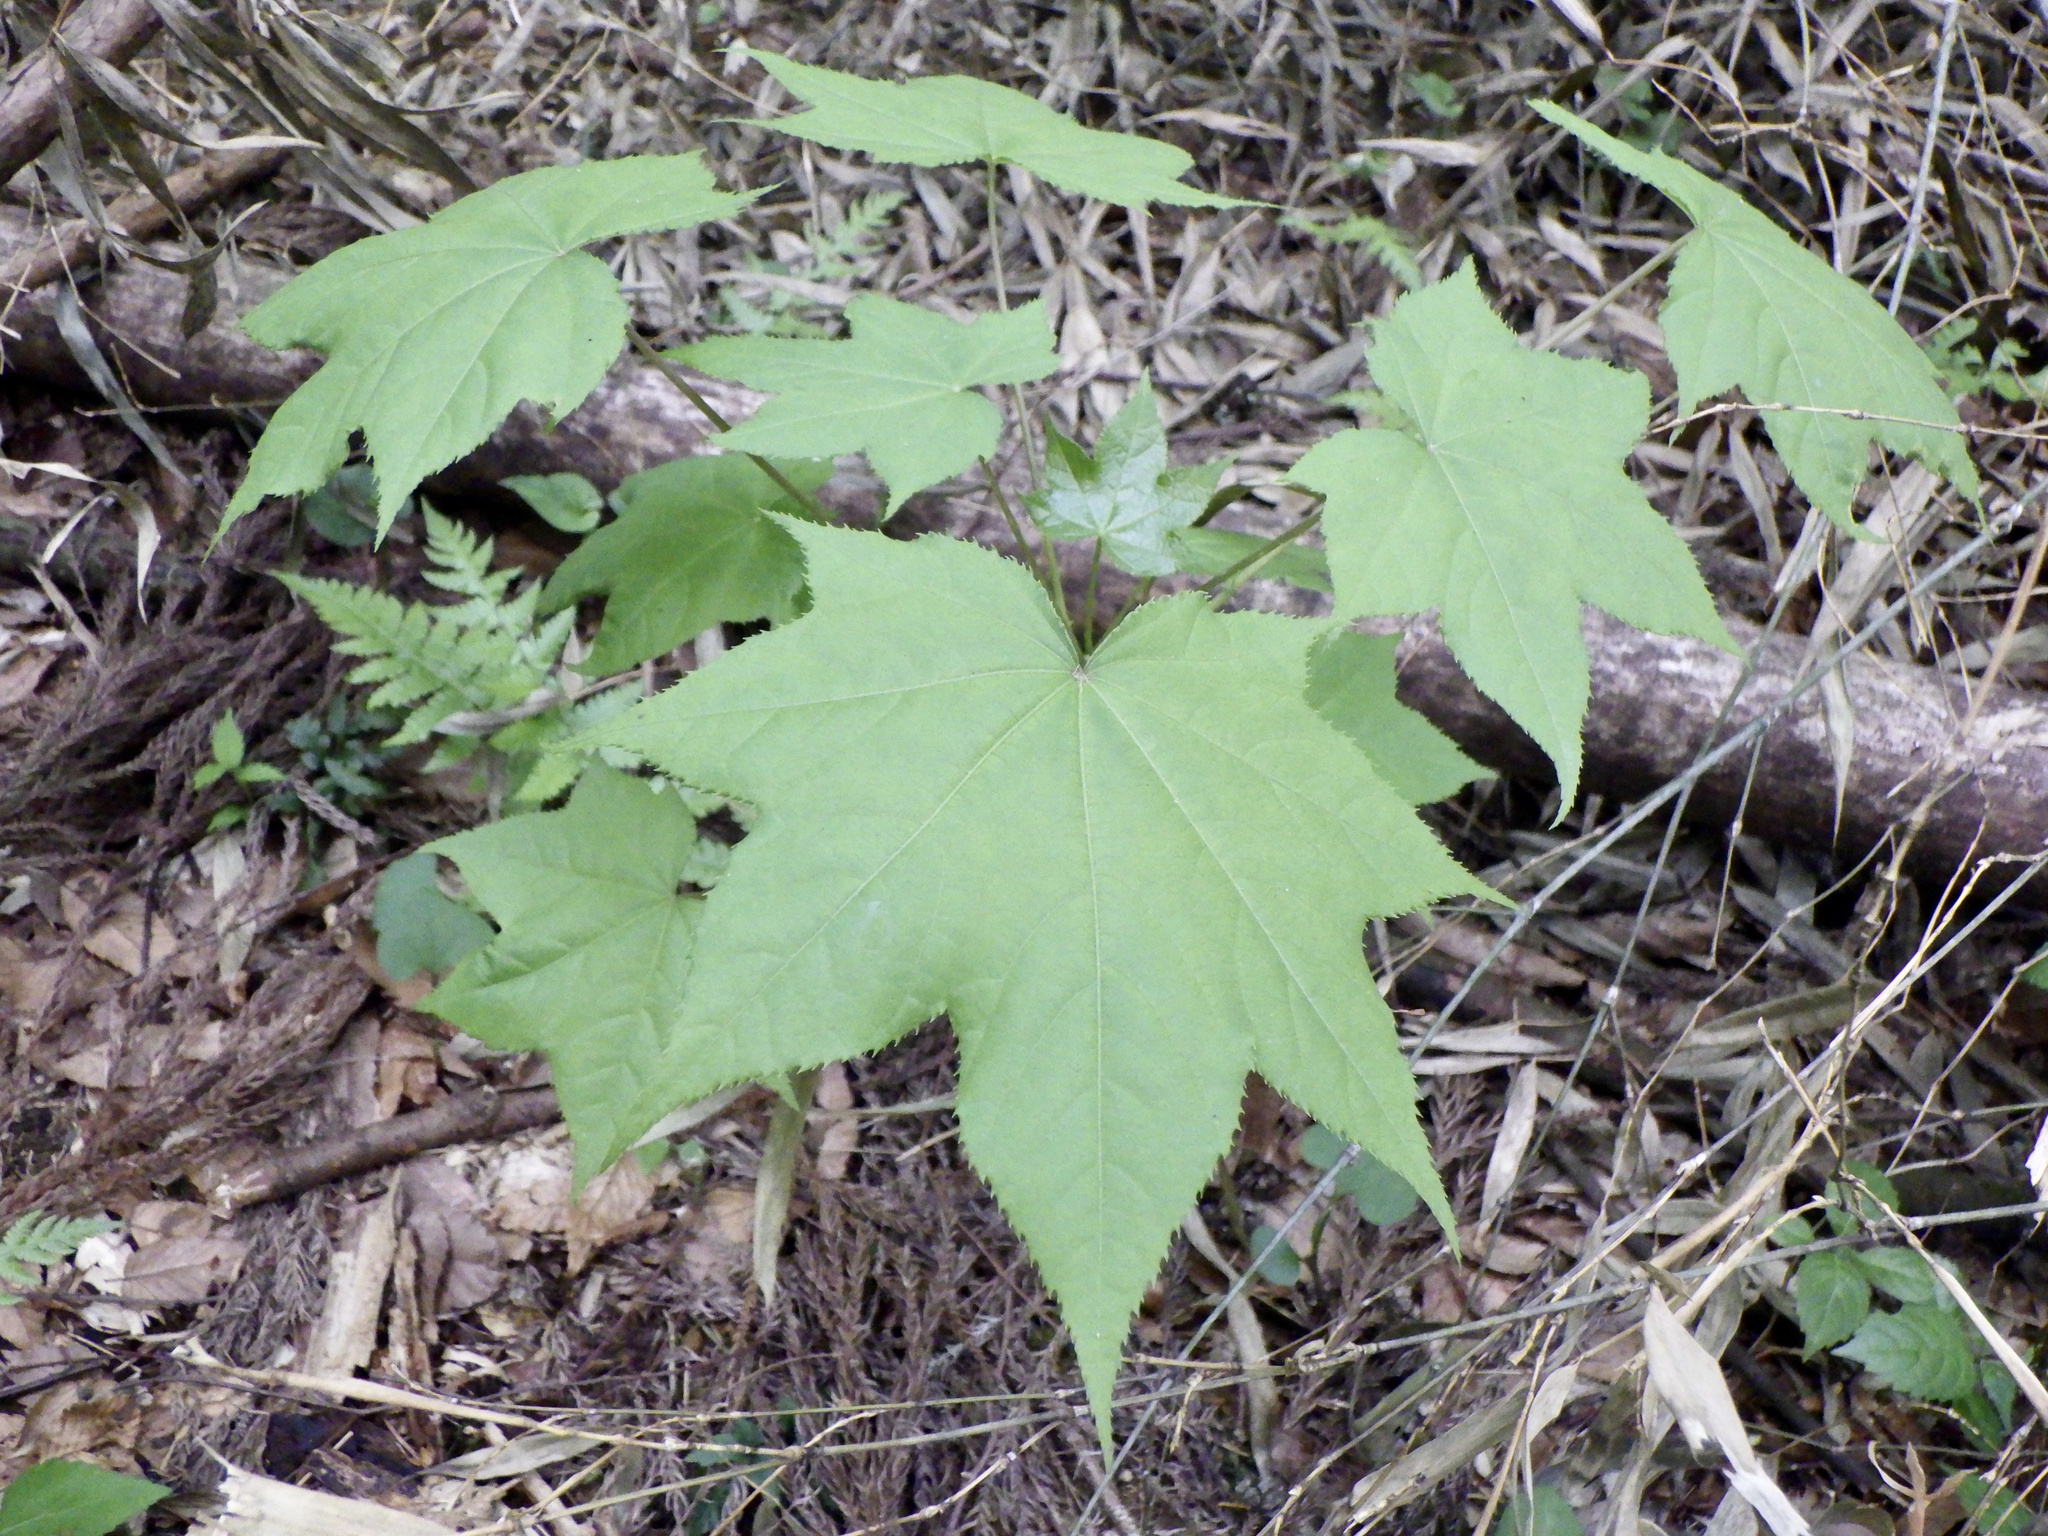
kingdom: Plantae
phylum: Tracheophyta
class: Magnoliopsida
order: Apiales
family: Araliaceae
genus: Kalopanax
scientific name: Kalopanax septemlobus
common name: Castor aralia
